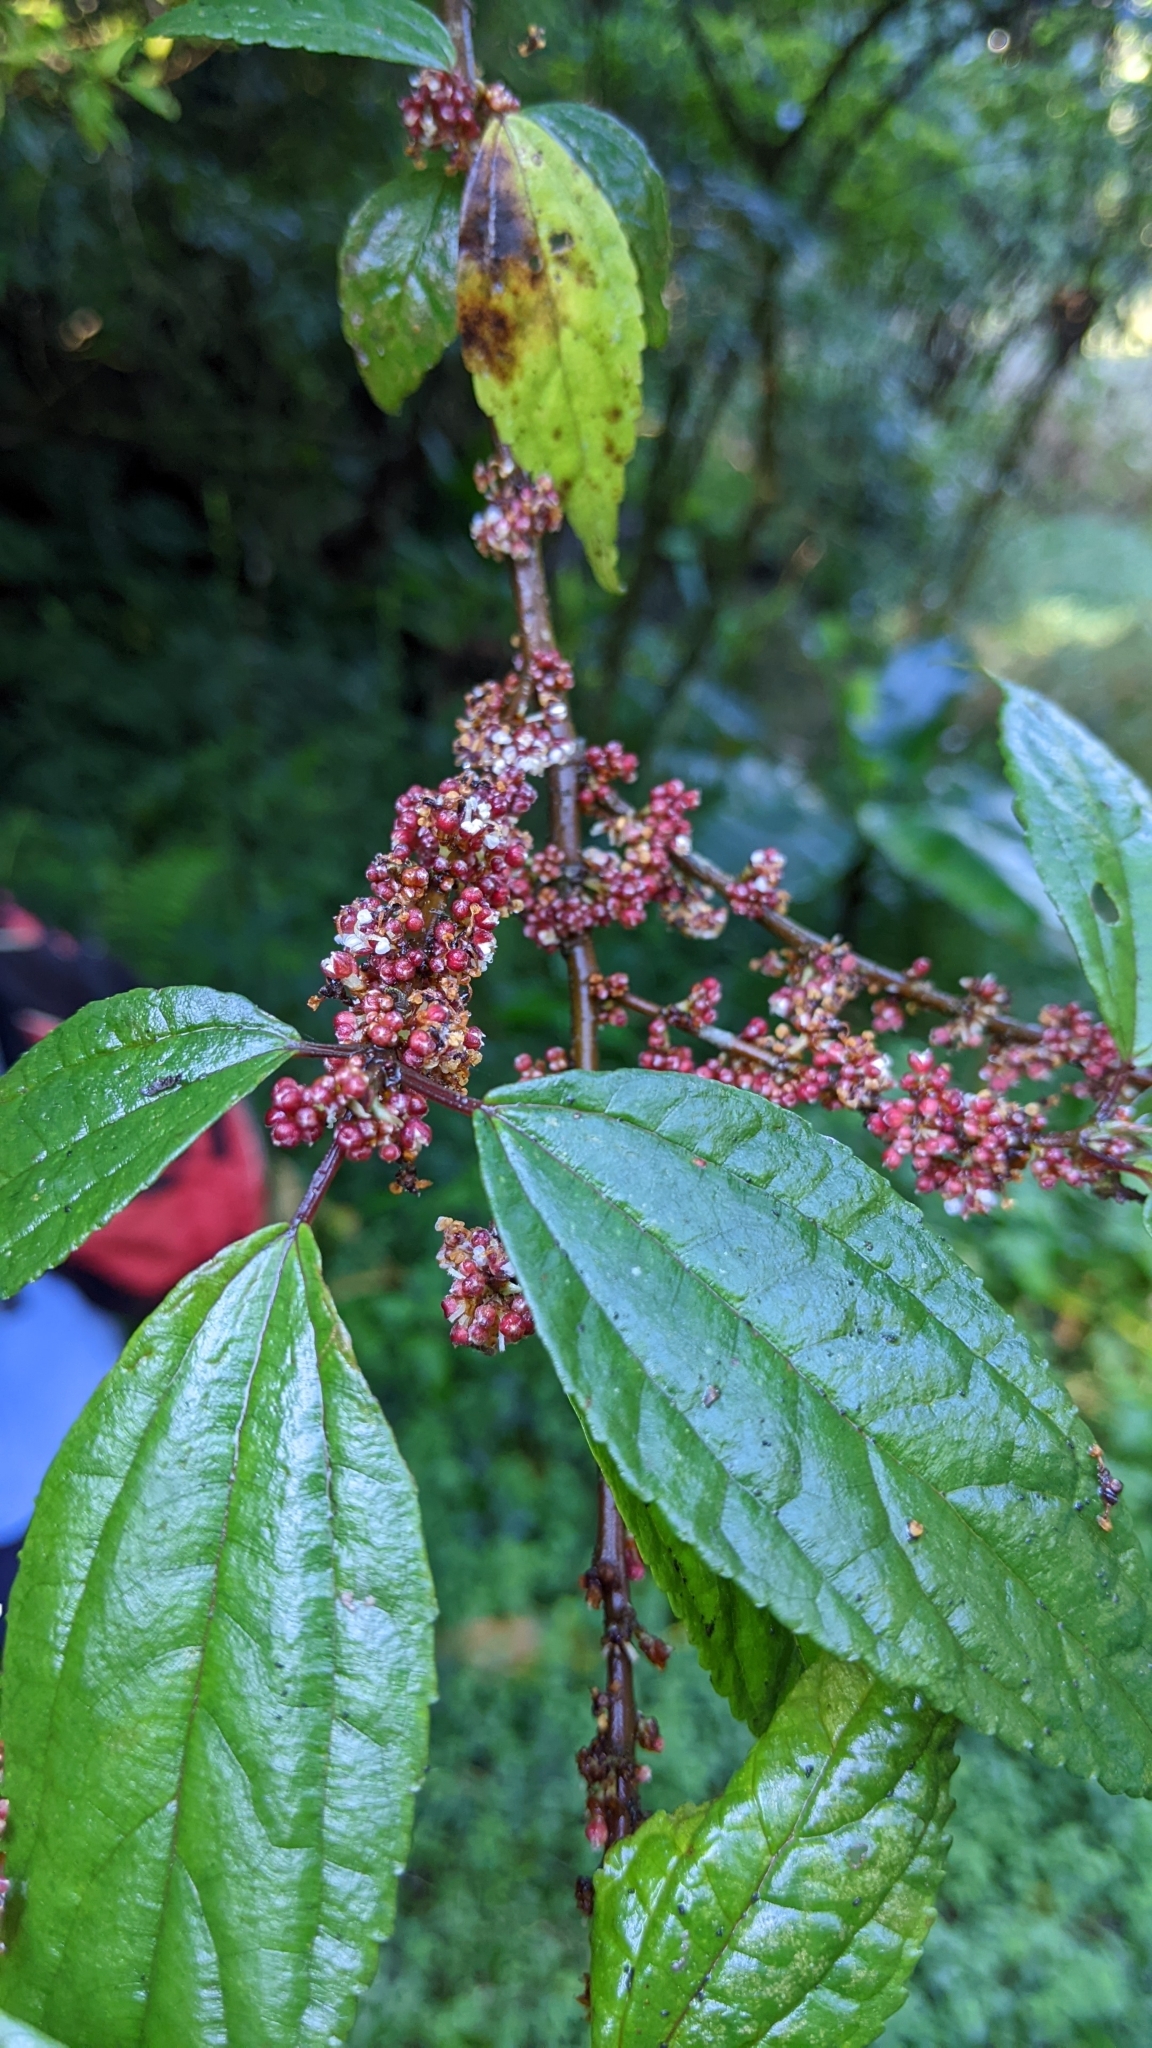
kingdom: Plantae
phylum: Tracheophyta
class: Magnoliopsida
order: Rosales
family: Urticaceae
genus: Oreocnide
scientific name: Oreocnide pedunculata
